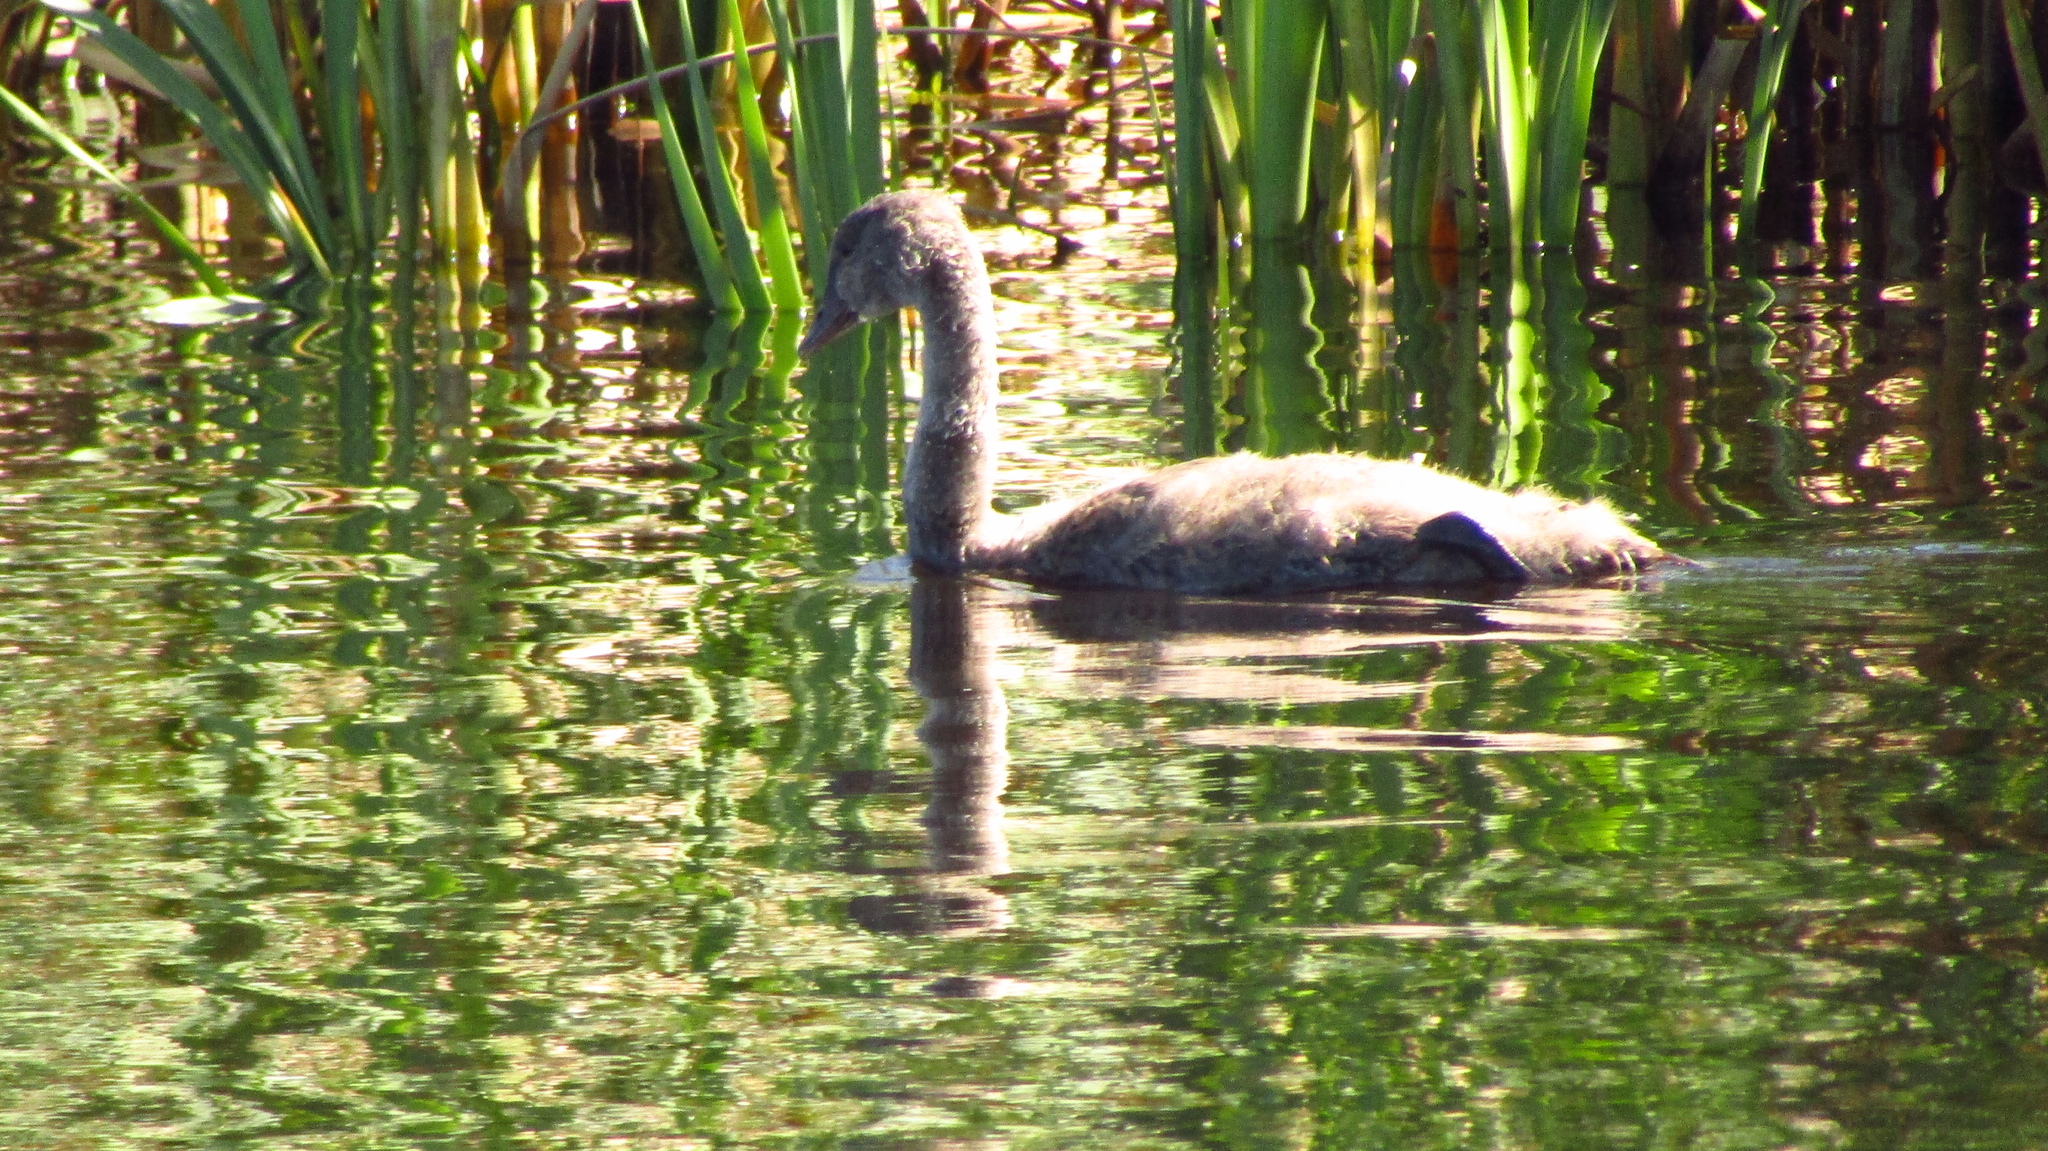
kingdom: Animalia
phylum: Chordata
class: Aves
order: Anseriformes
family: Anatidae
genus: Cygnus
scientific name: Cygnus atratus
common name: Black swan
